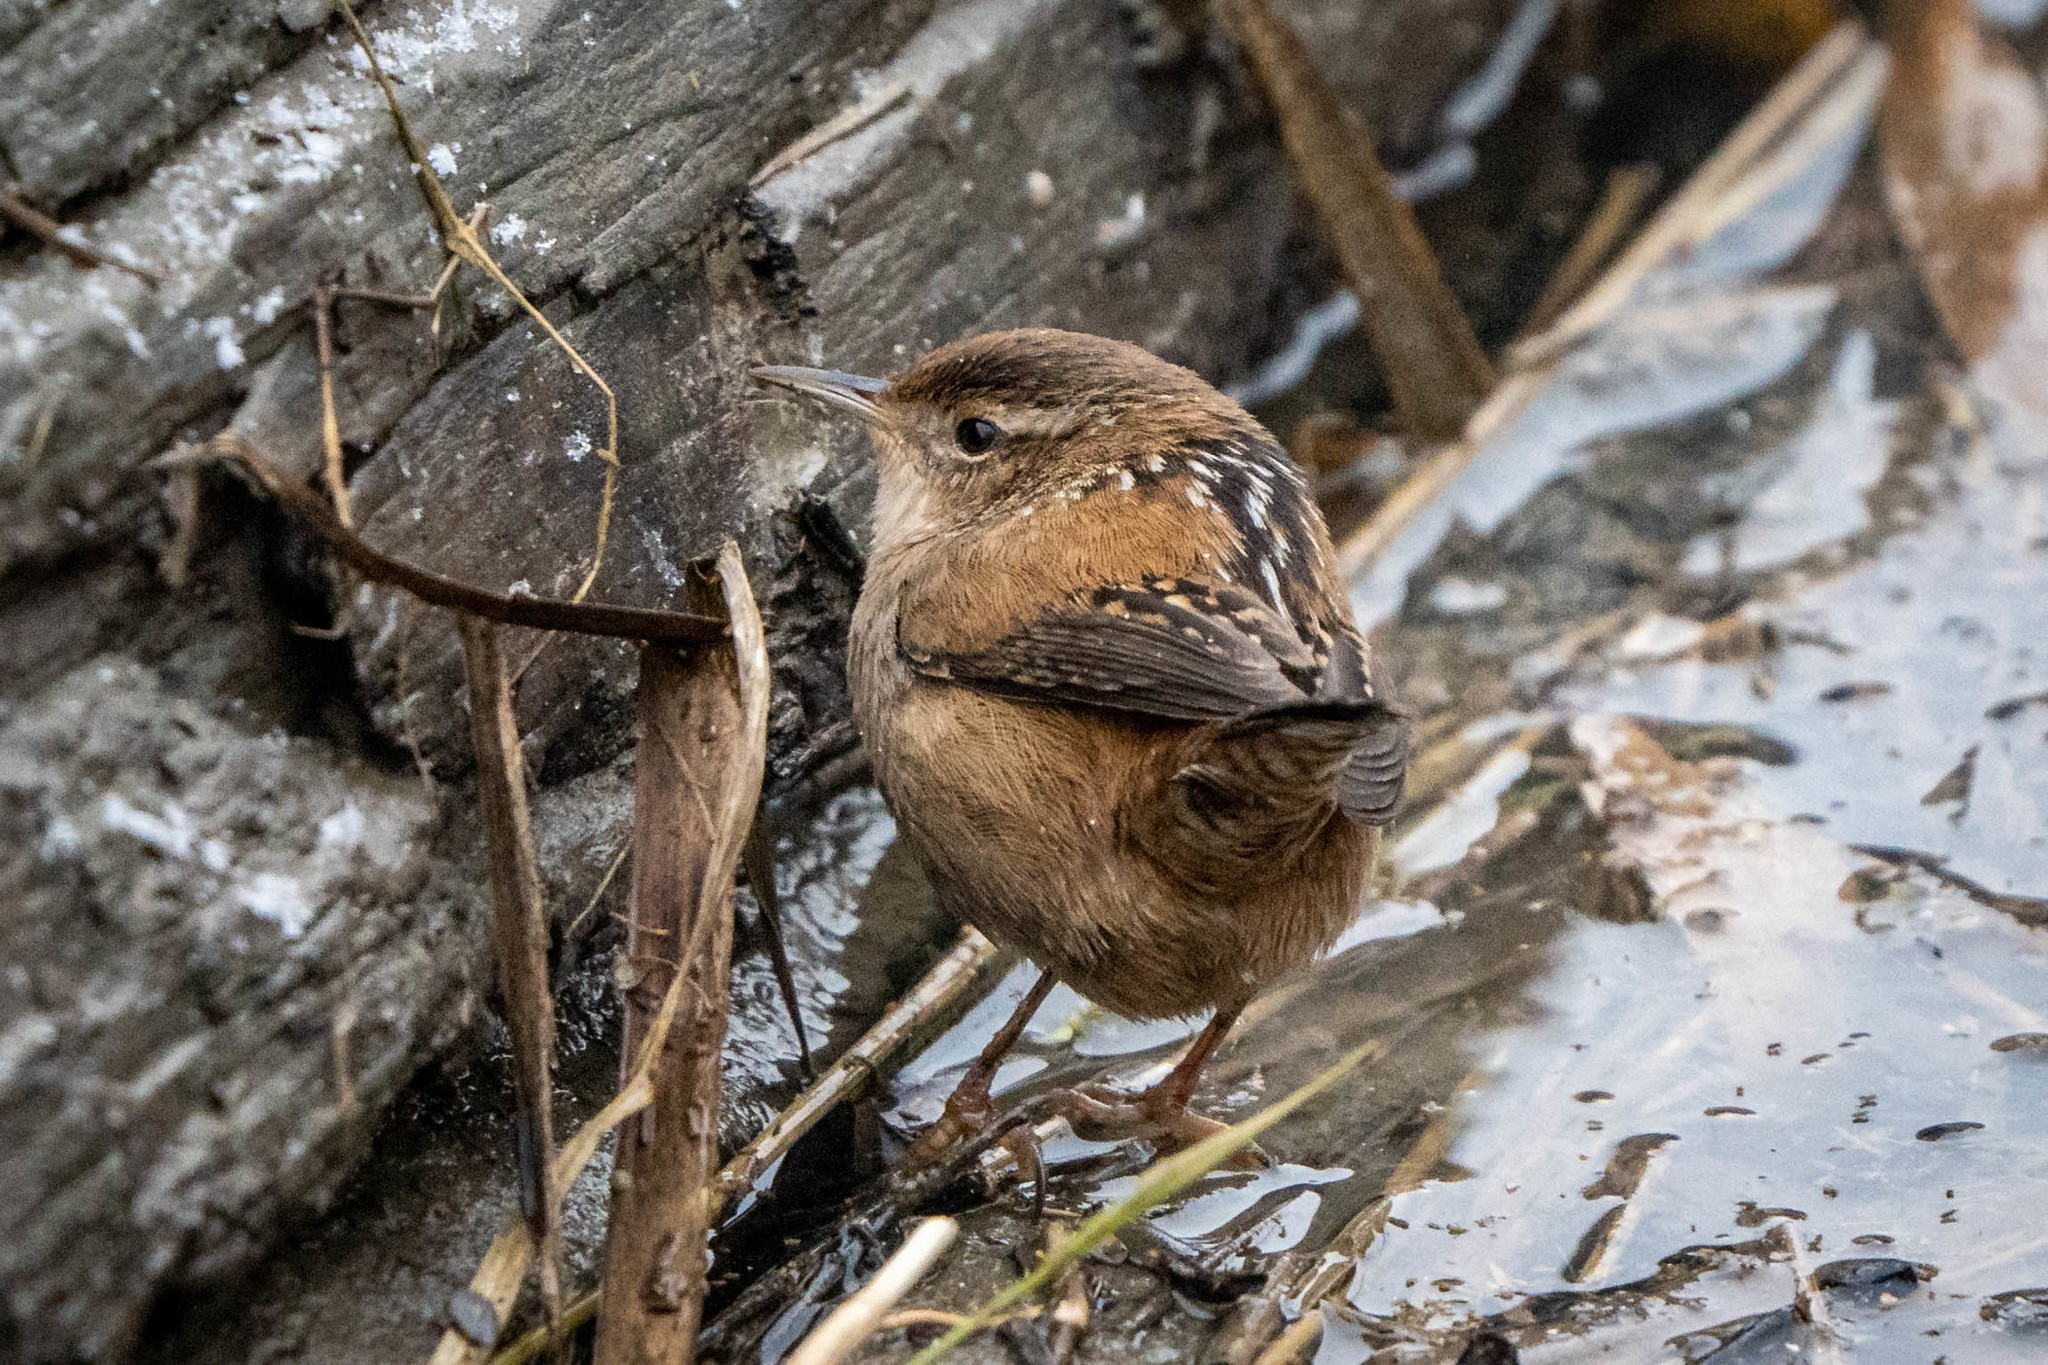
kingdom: Animalia
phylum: Chordata
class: Aves
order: Passeriformes
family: Troglodytidae
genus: Cistothorus
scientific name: Cistothorus palustris
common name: Marsh wren
